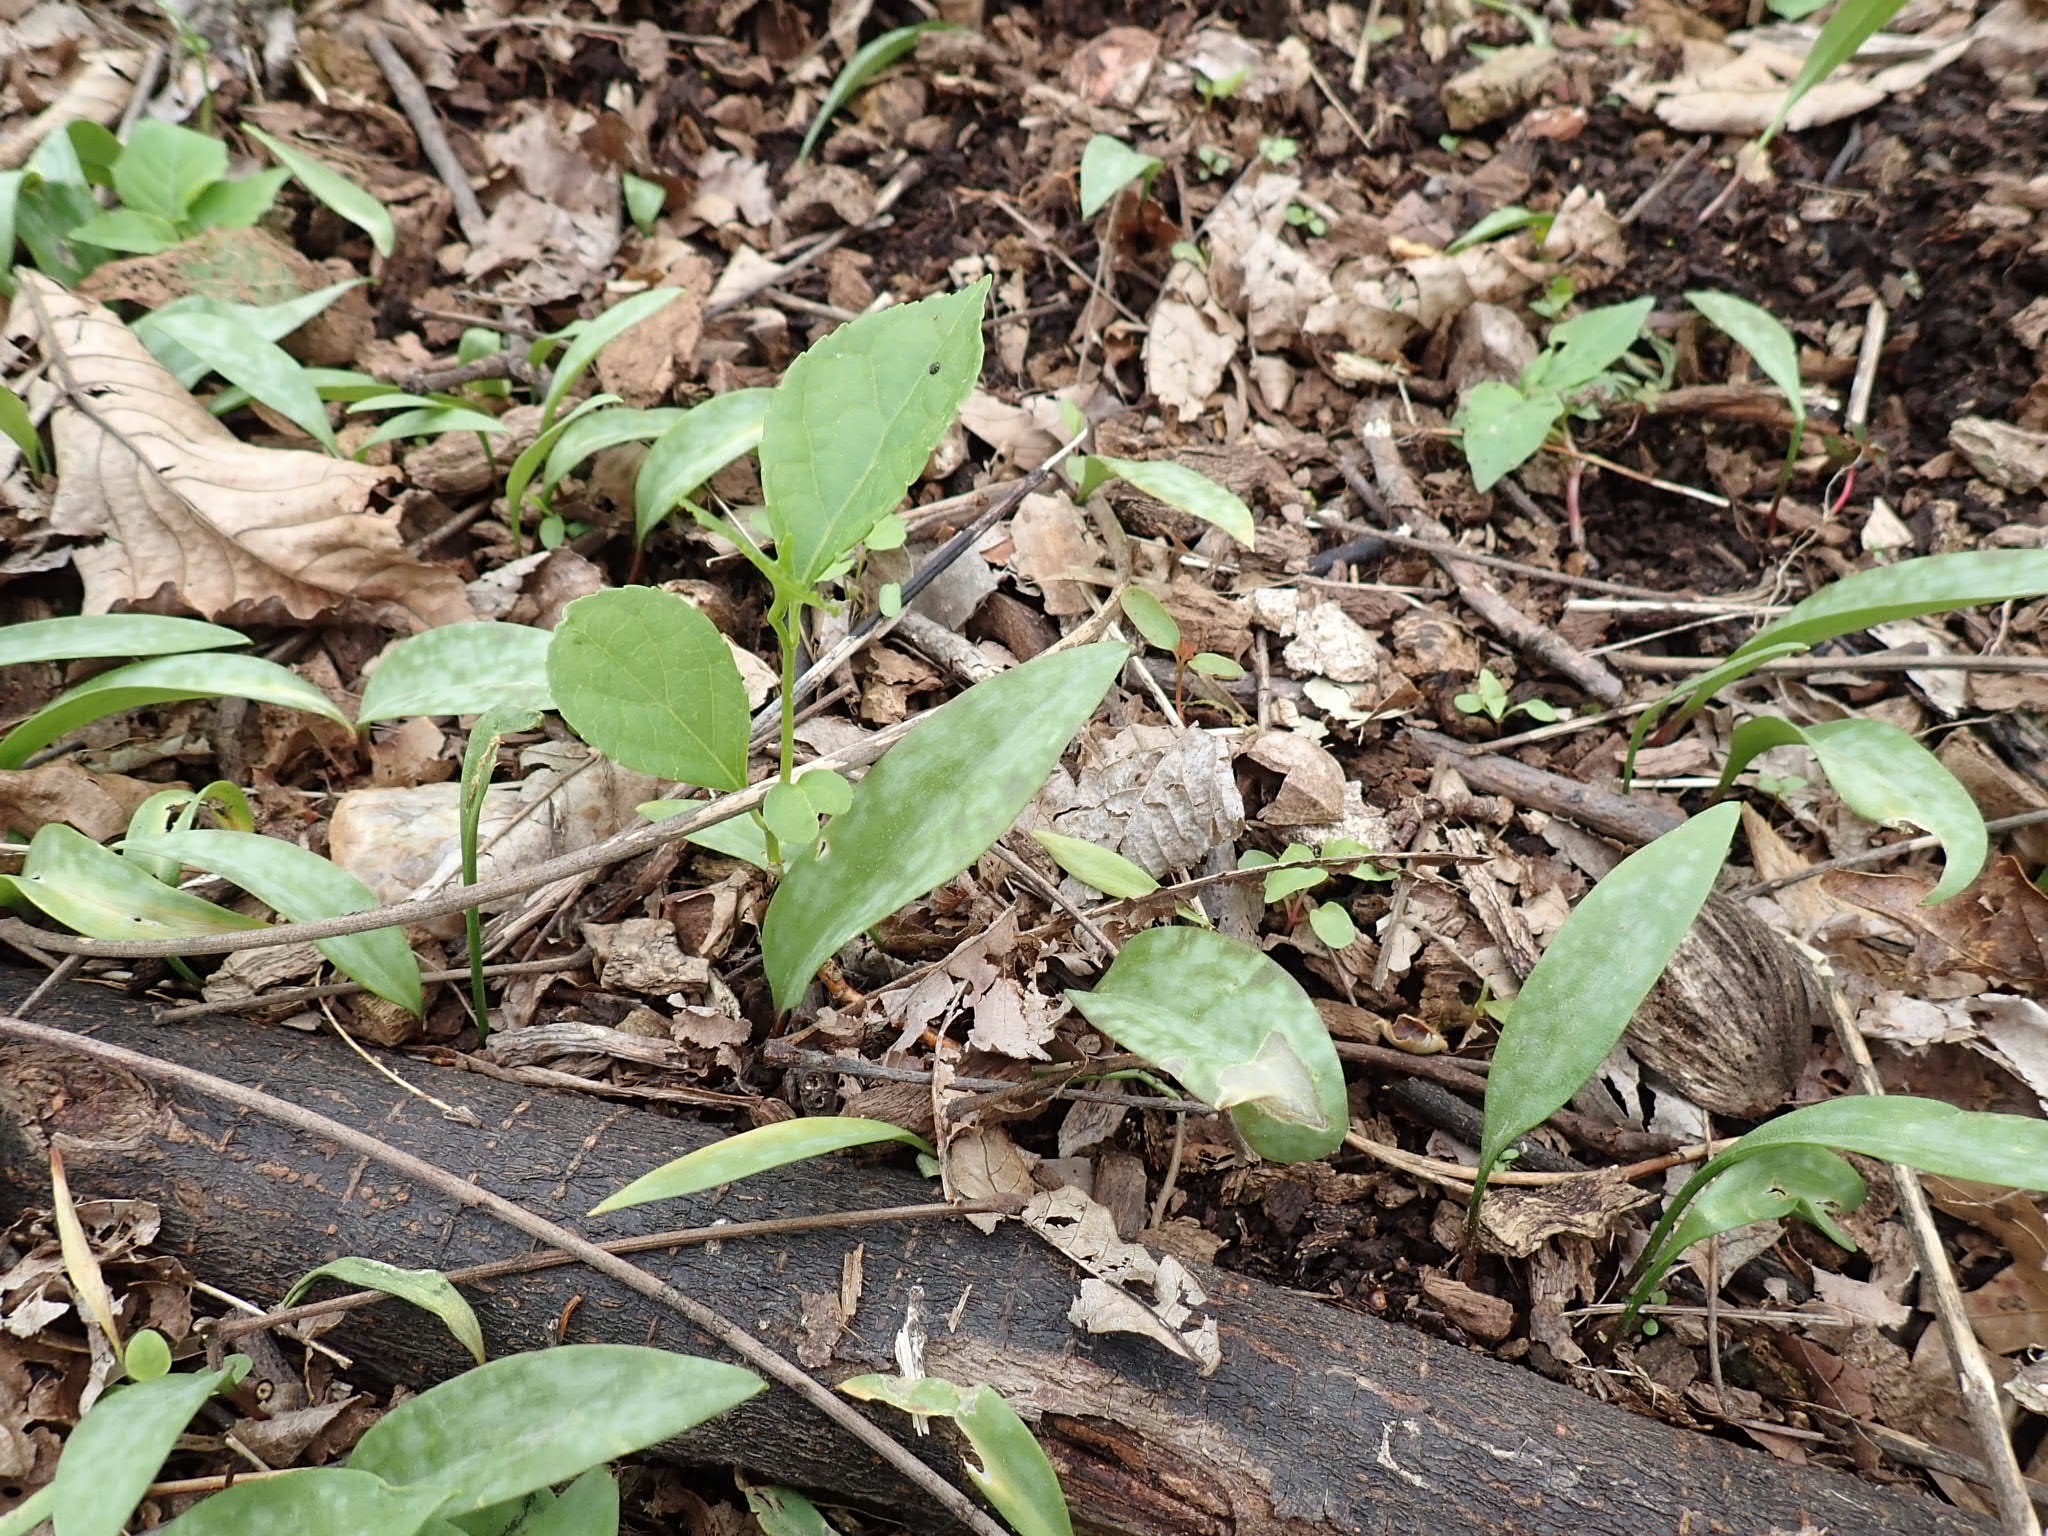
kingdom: Plantae
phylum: Tracheophyta
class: Liliopsida
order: Liliales
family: Liliaceae
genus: Erythronium
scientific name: Erythronium americanum
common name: Yellow adder's-tongue
